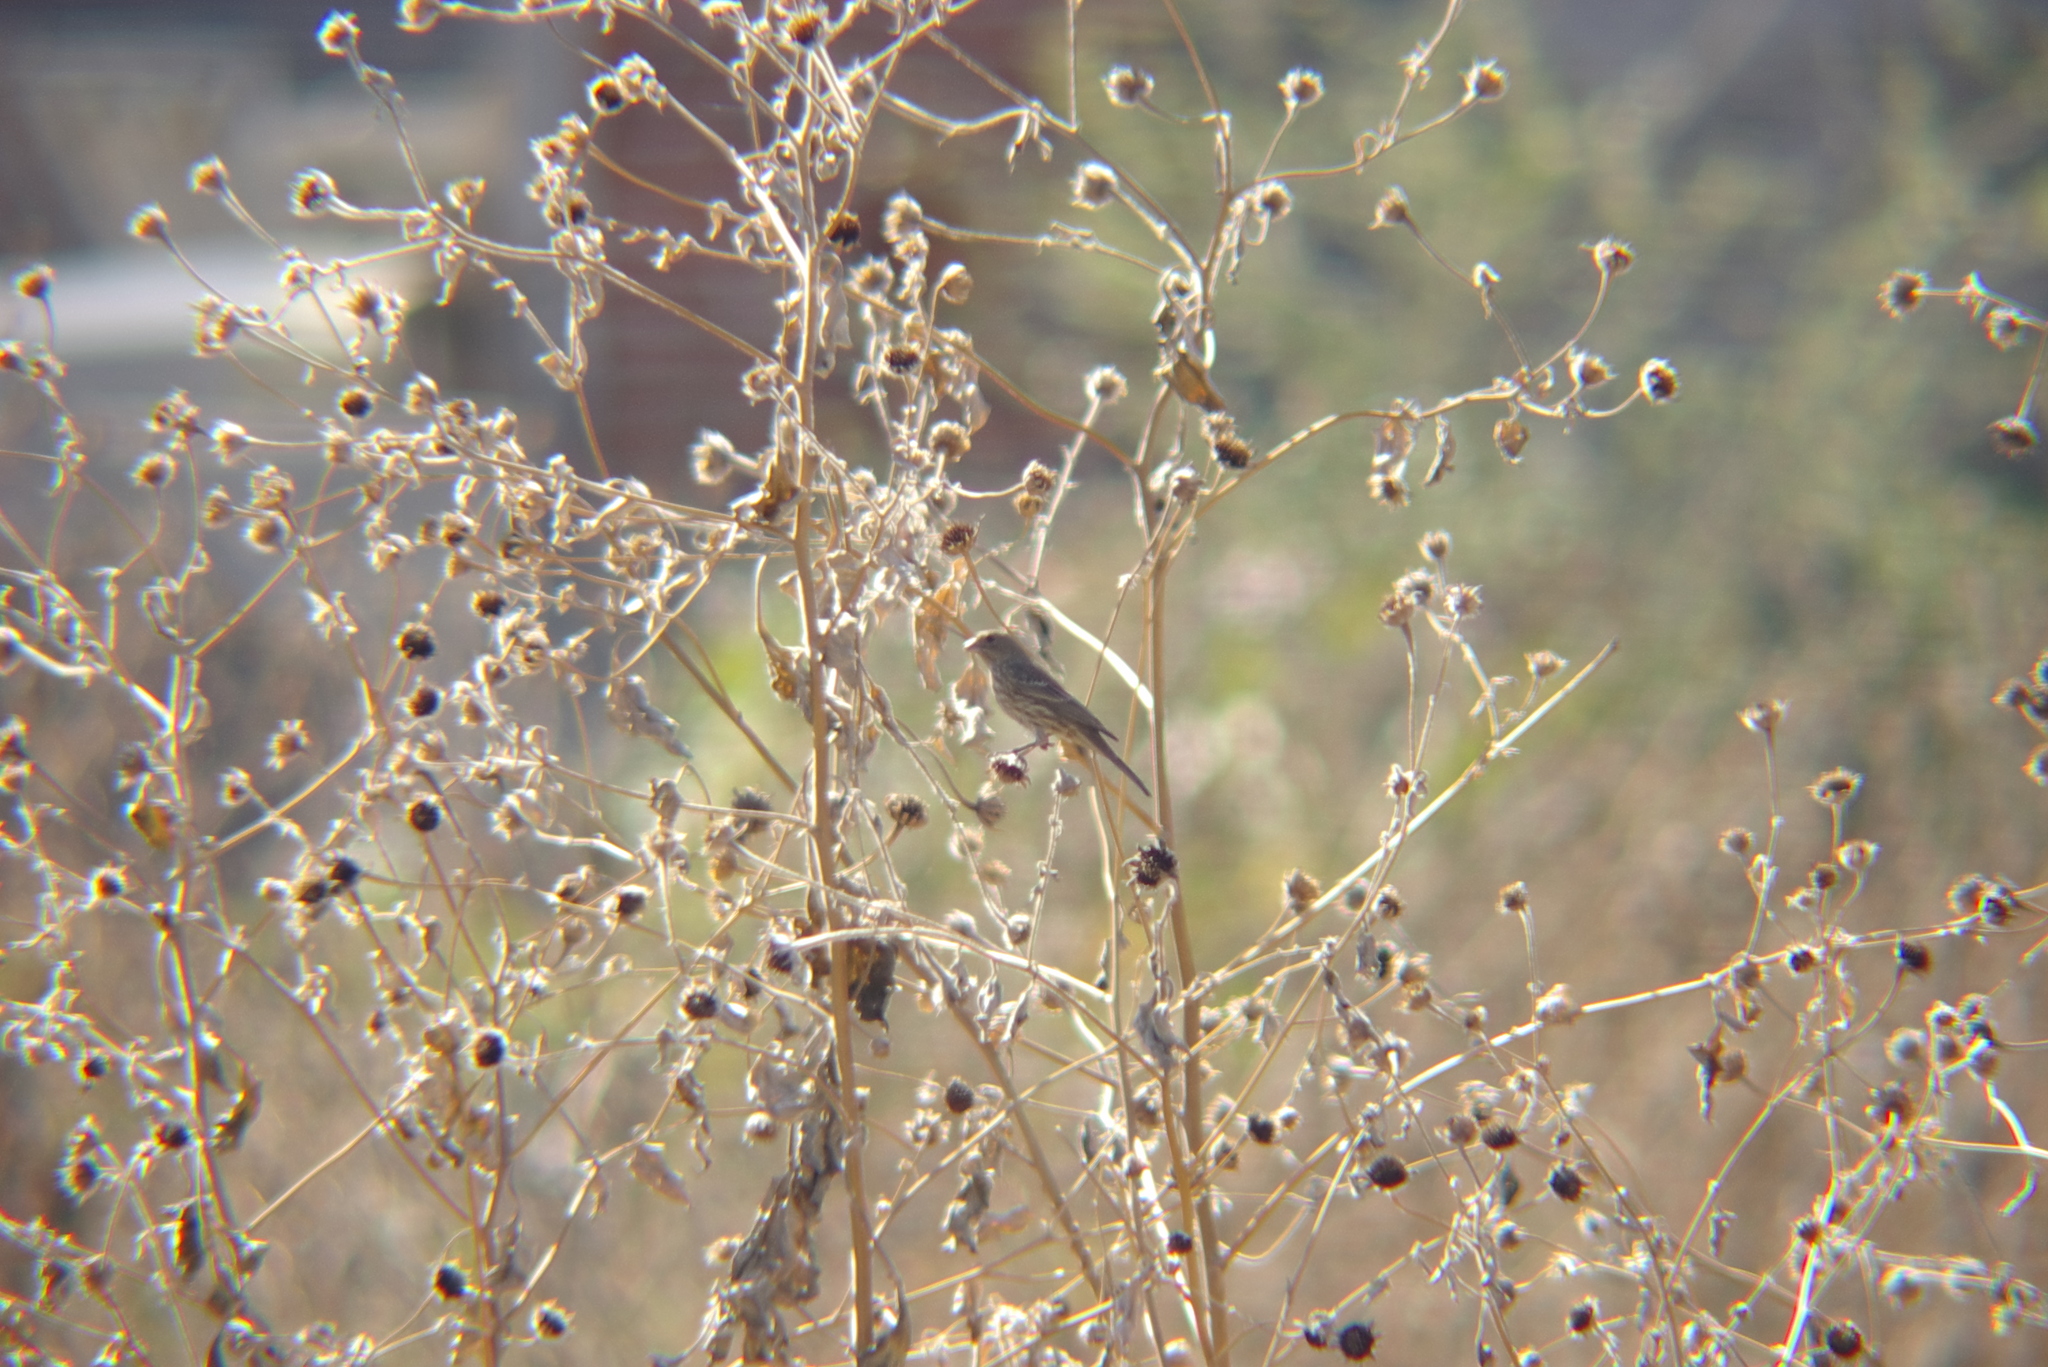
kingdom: Animalia
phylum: Chordata
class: Aves
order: Passeriformes
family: Fringillidae
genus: Haemorhous
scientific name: Haemorhous mexicanus
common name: House finch
